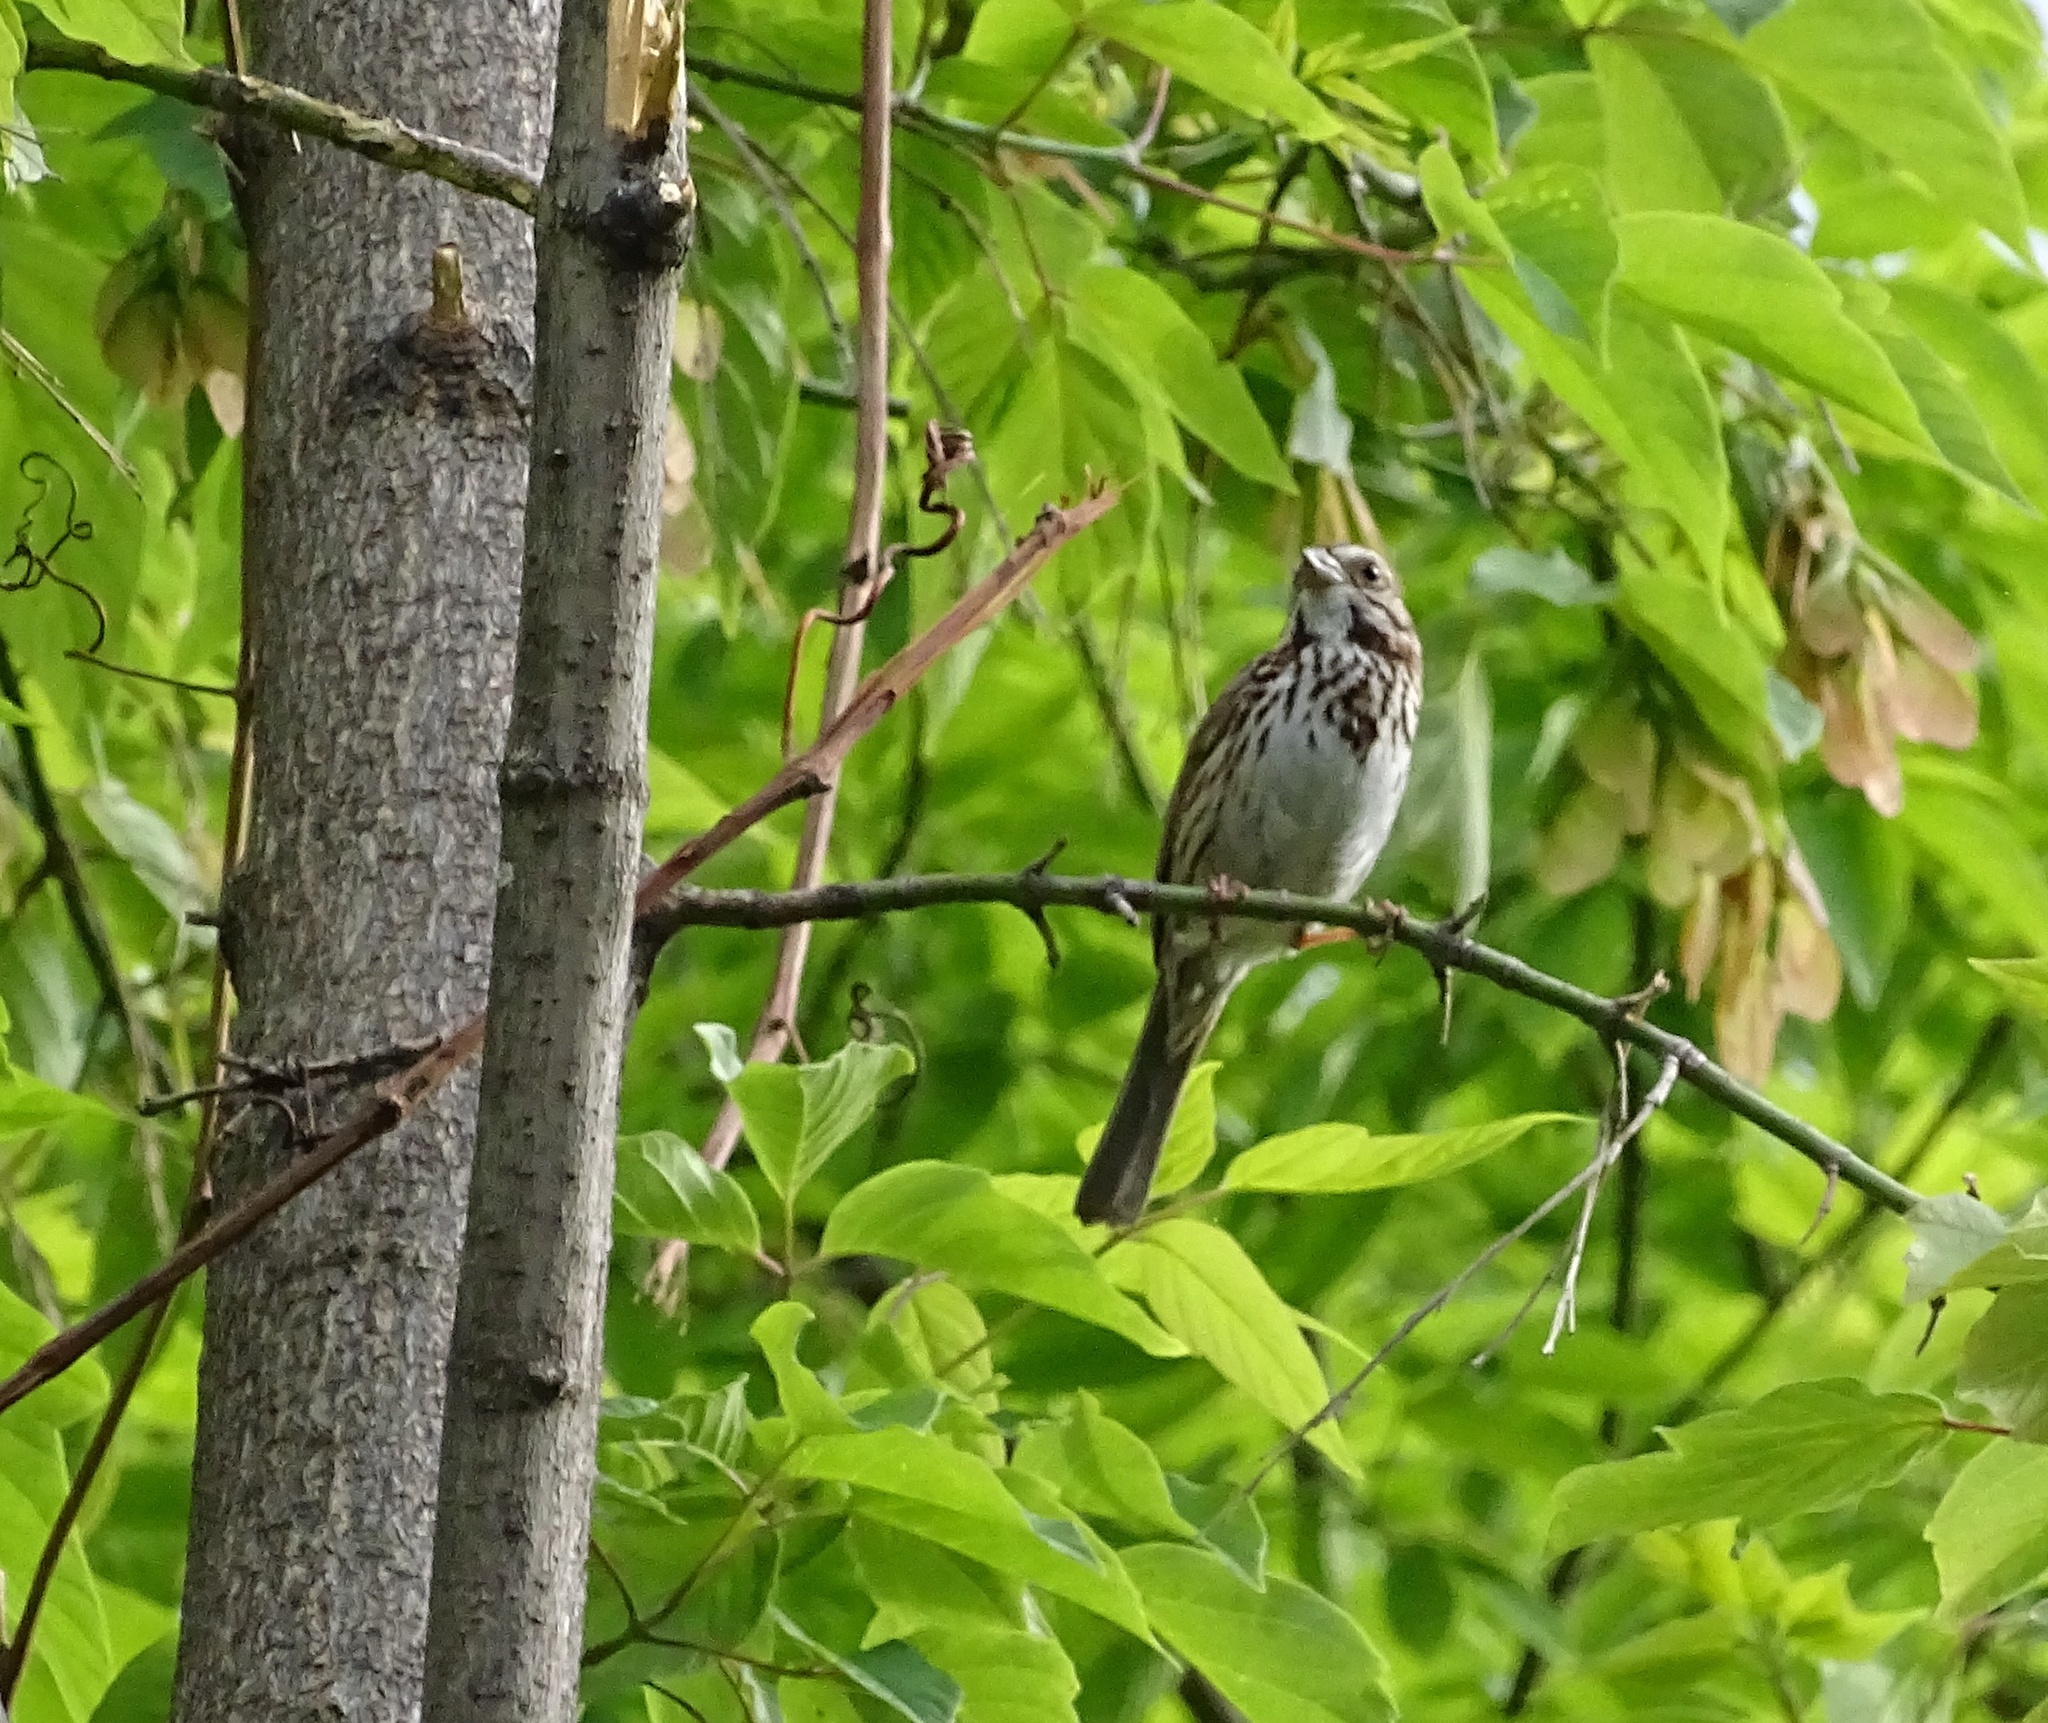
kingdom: Animalia
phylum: Chordata
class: Aves
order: Passeriformes
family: Passerellidae
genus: Melospiza
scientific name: Melospiza melodia
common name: Song sparrow
